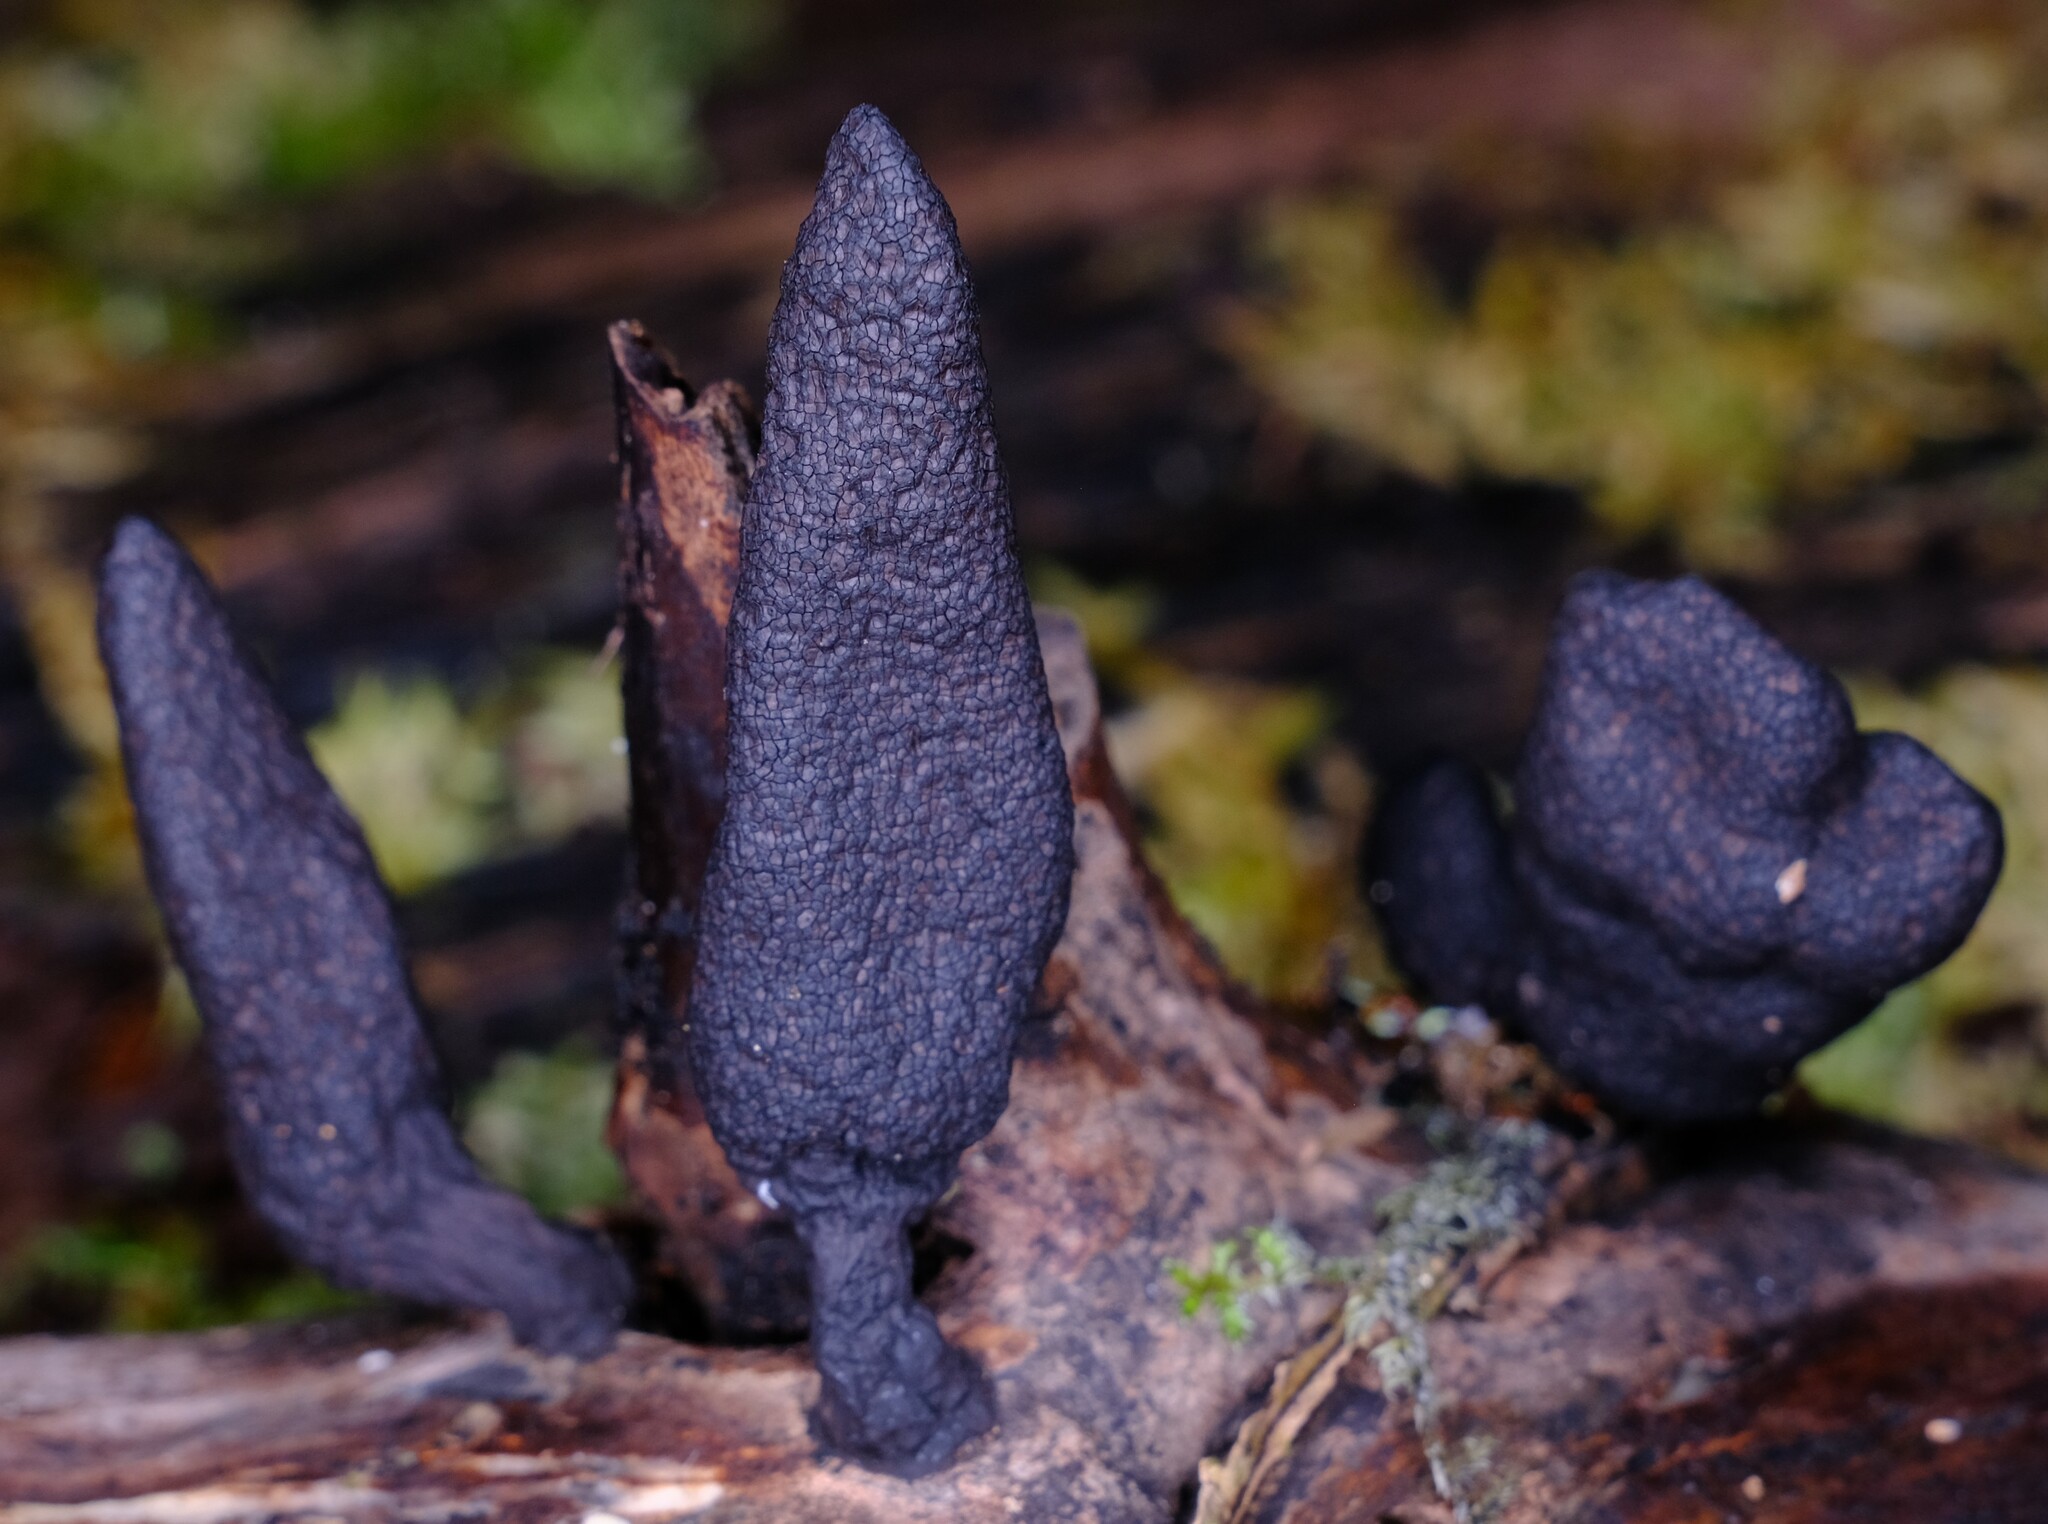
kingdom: Fungi
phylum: Ascomycota
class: Sordariomycetes
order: Xylariales
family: Xylariaceae
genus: Xylaria
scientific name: Xylaria castorea
